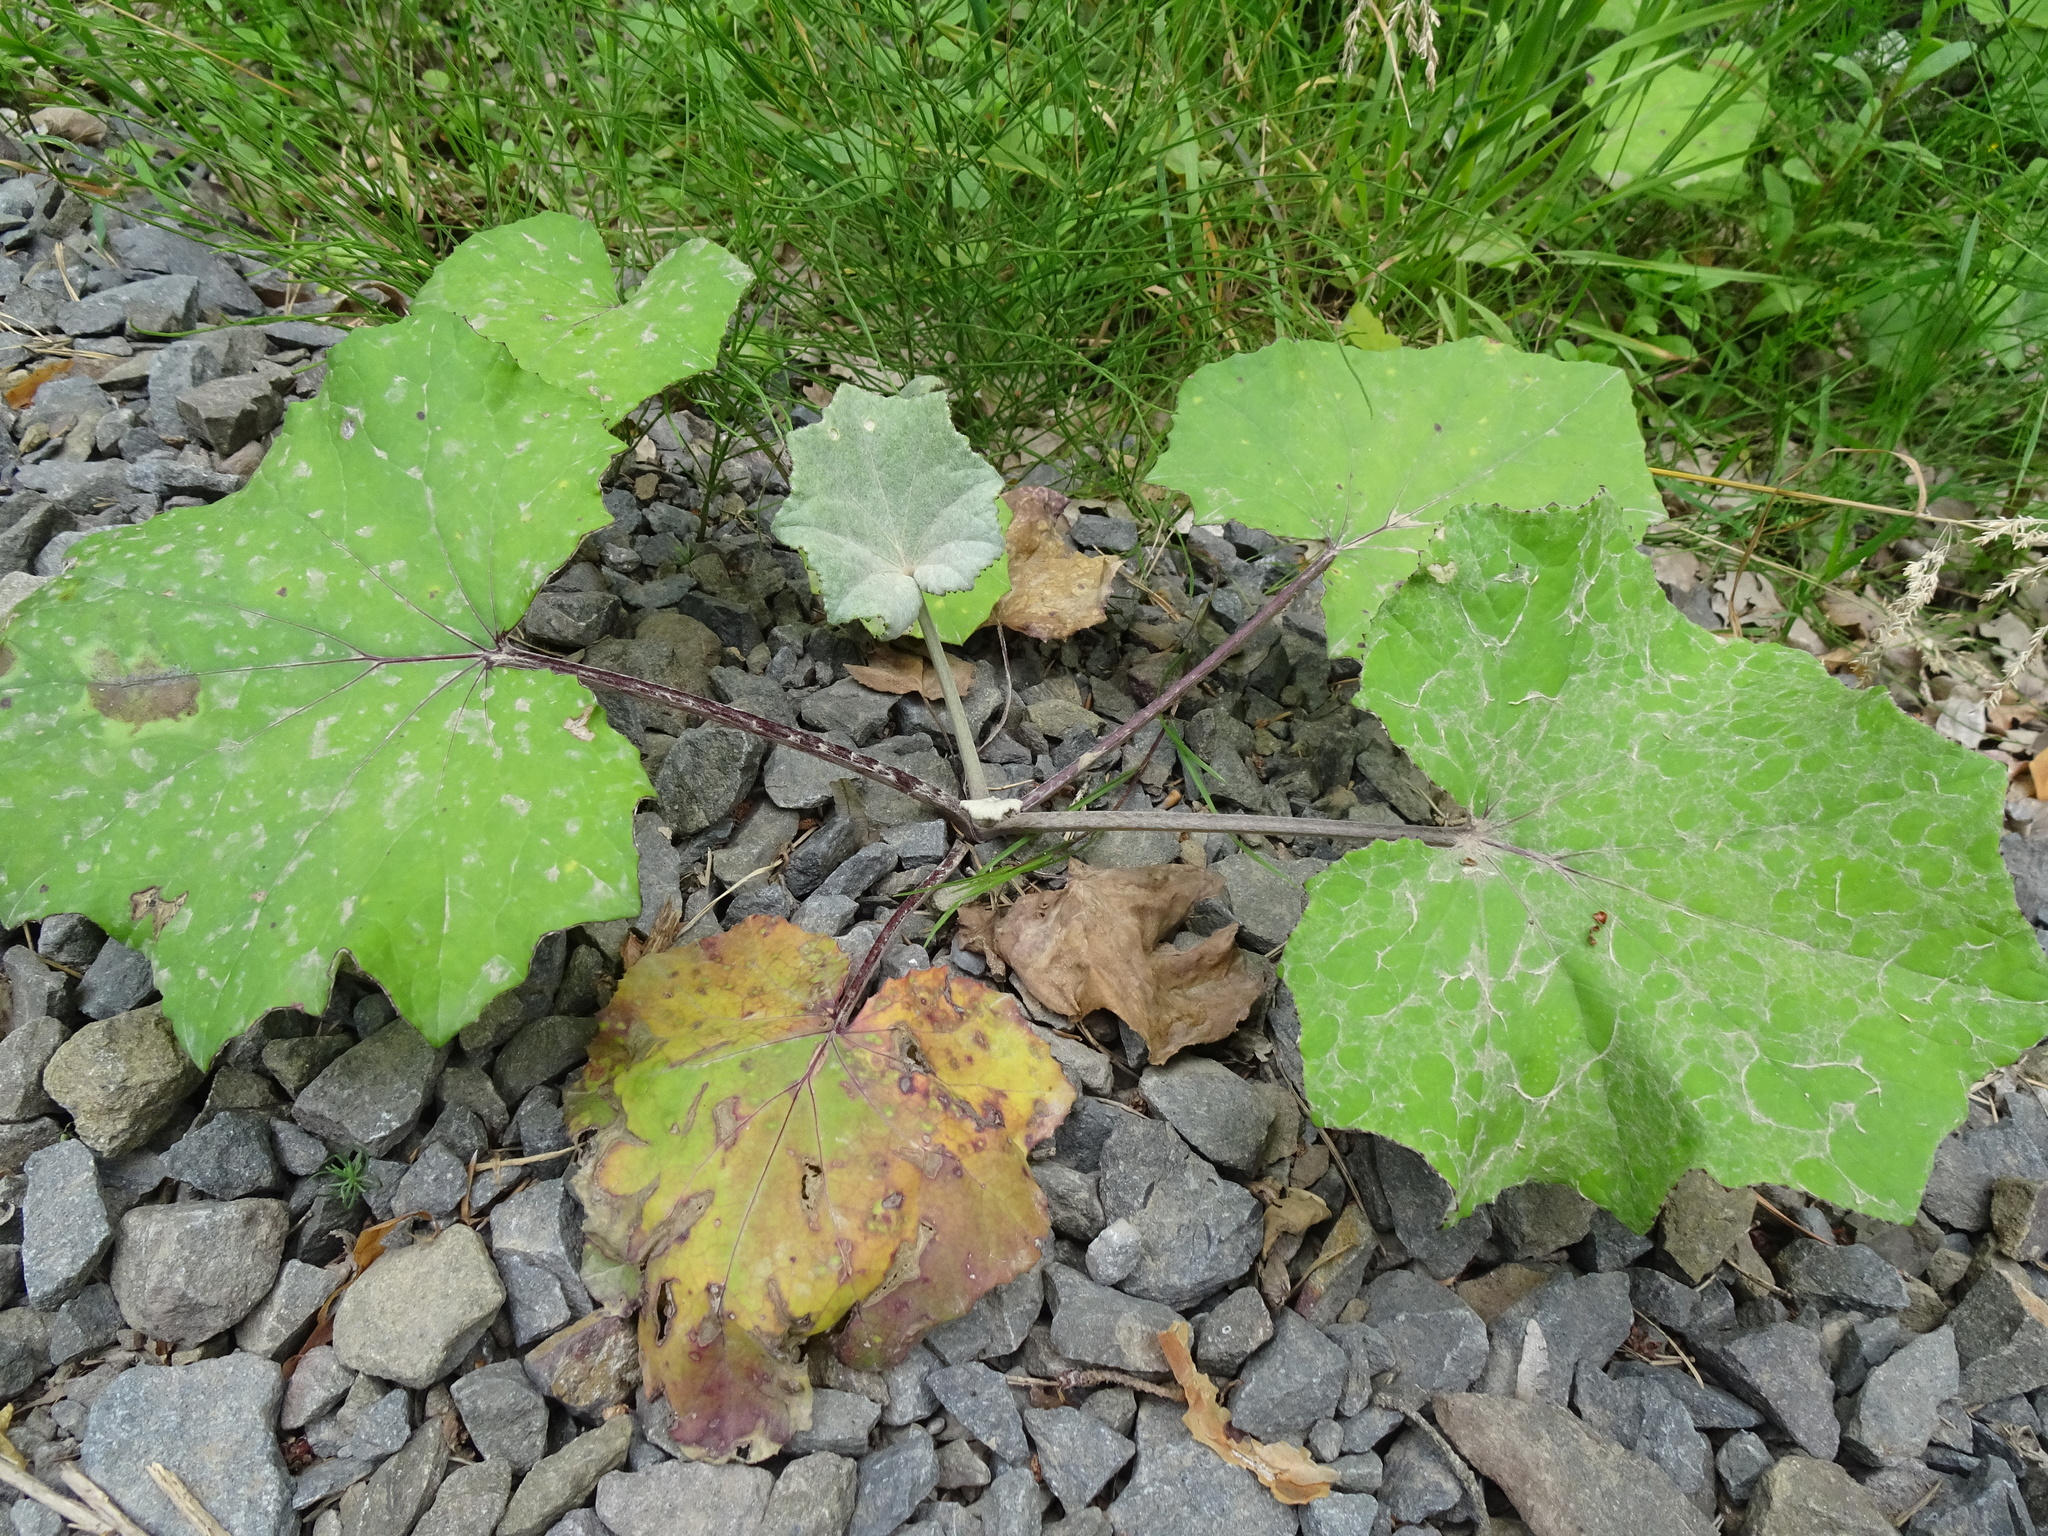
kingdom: Plantae
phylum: Tracheophyta
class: Magnoliopsida
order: Asterales
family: Asteraceae
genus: Tussilago
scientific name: Tussilago farfara
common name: Coltsfoot
